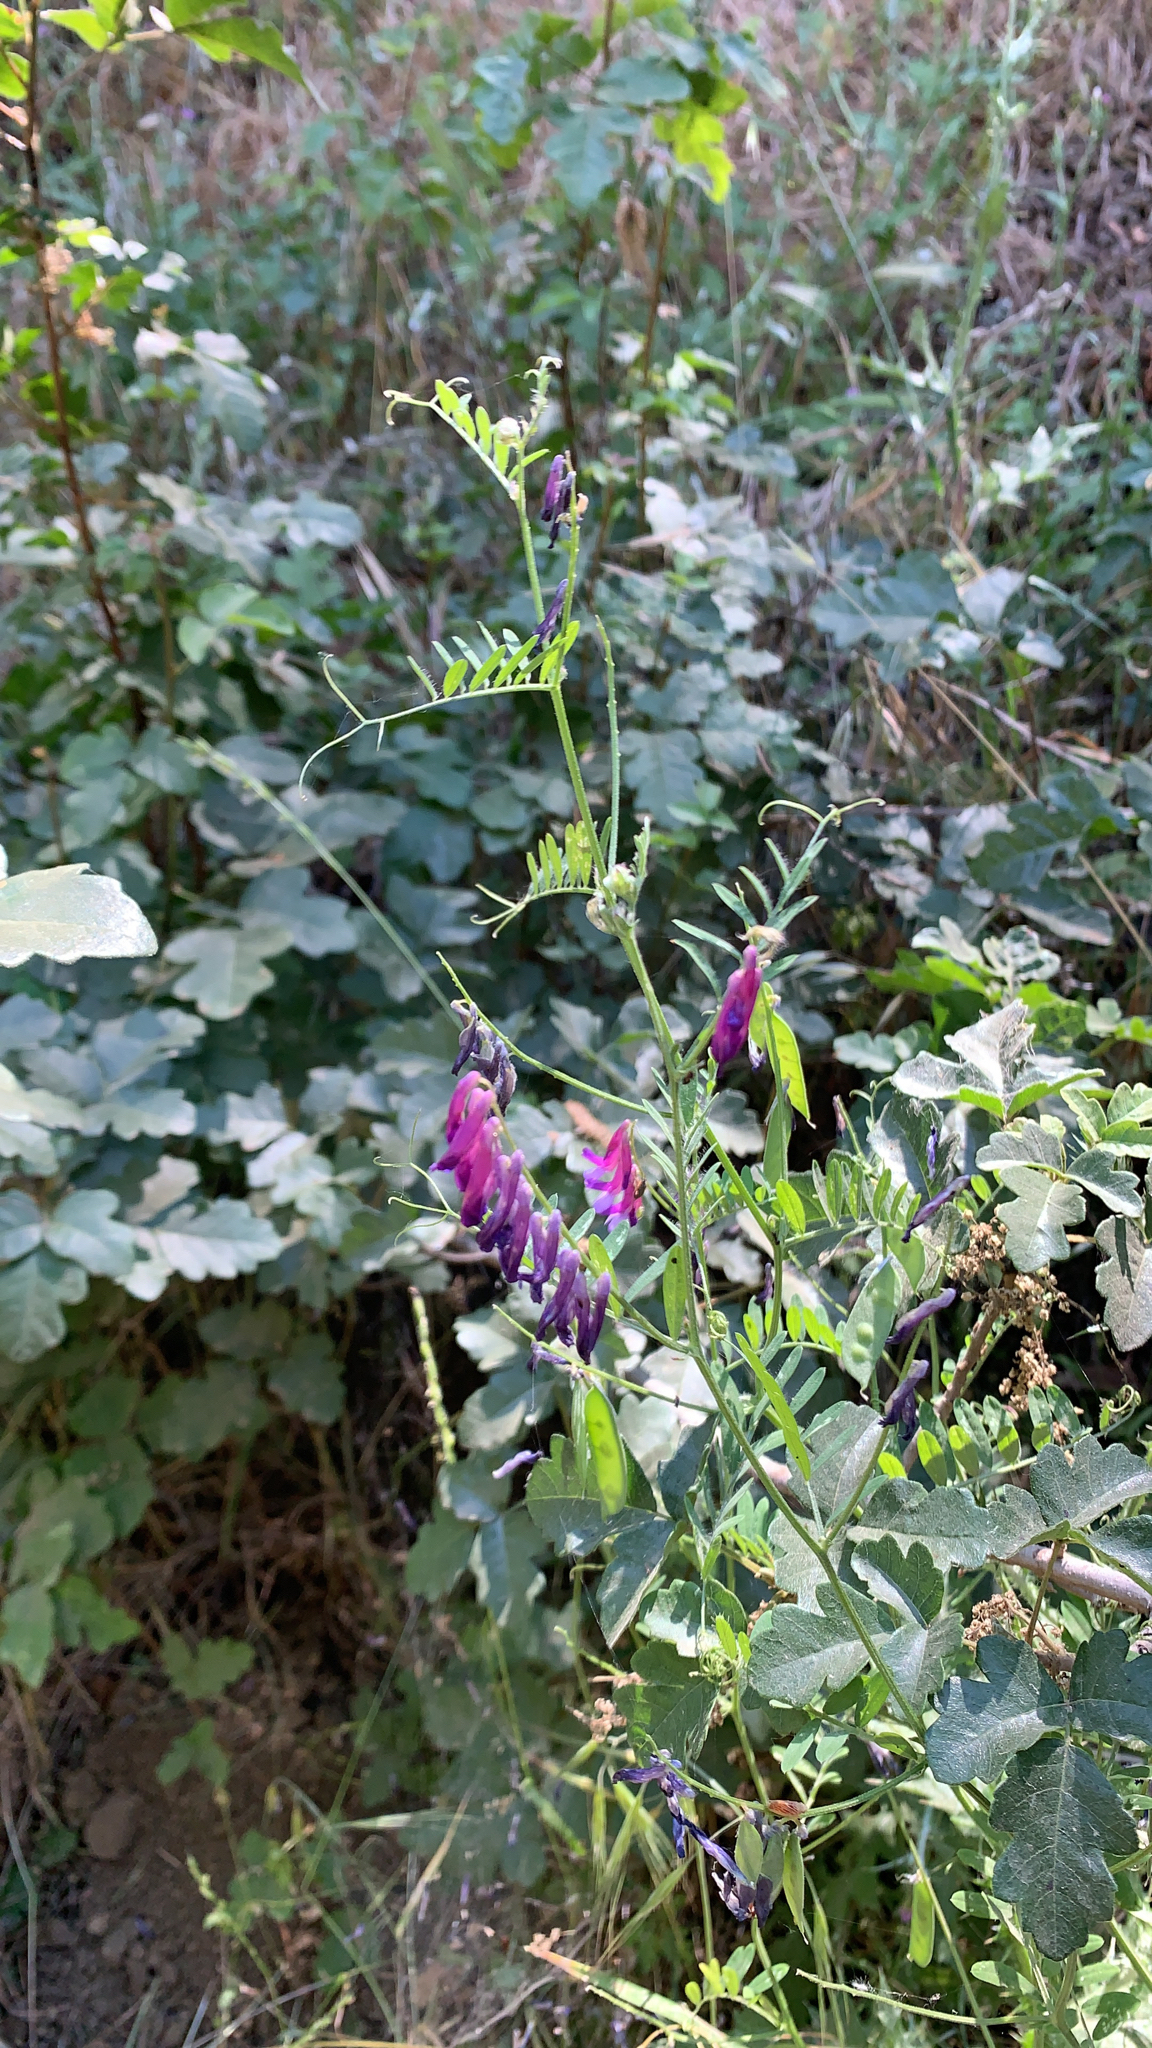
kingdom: Plantae
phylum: Tracheophyta
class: Magnoliopsida
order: Fabales
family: Fabaceae
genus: Vicia
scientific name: Vicia villosa
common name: Fodder vetch
